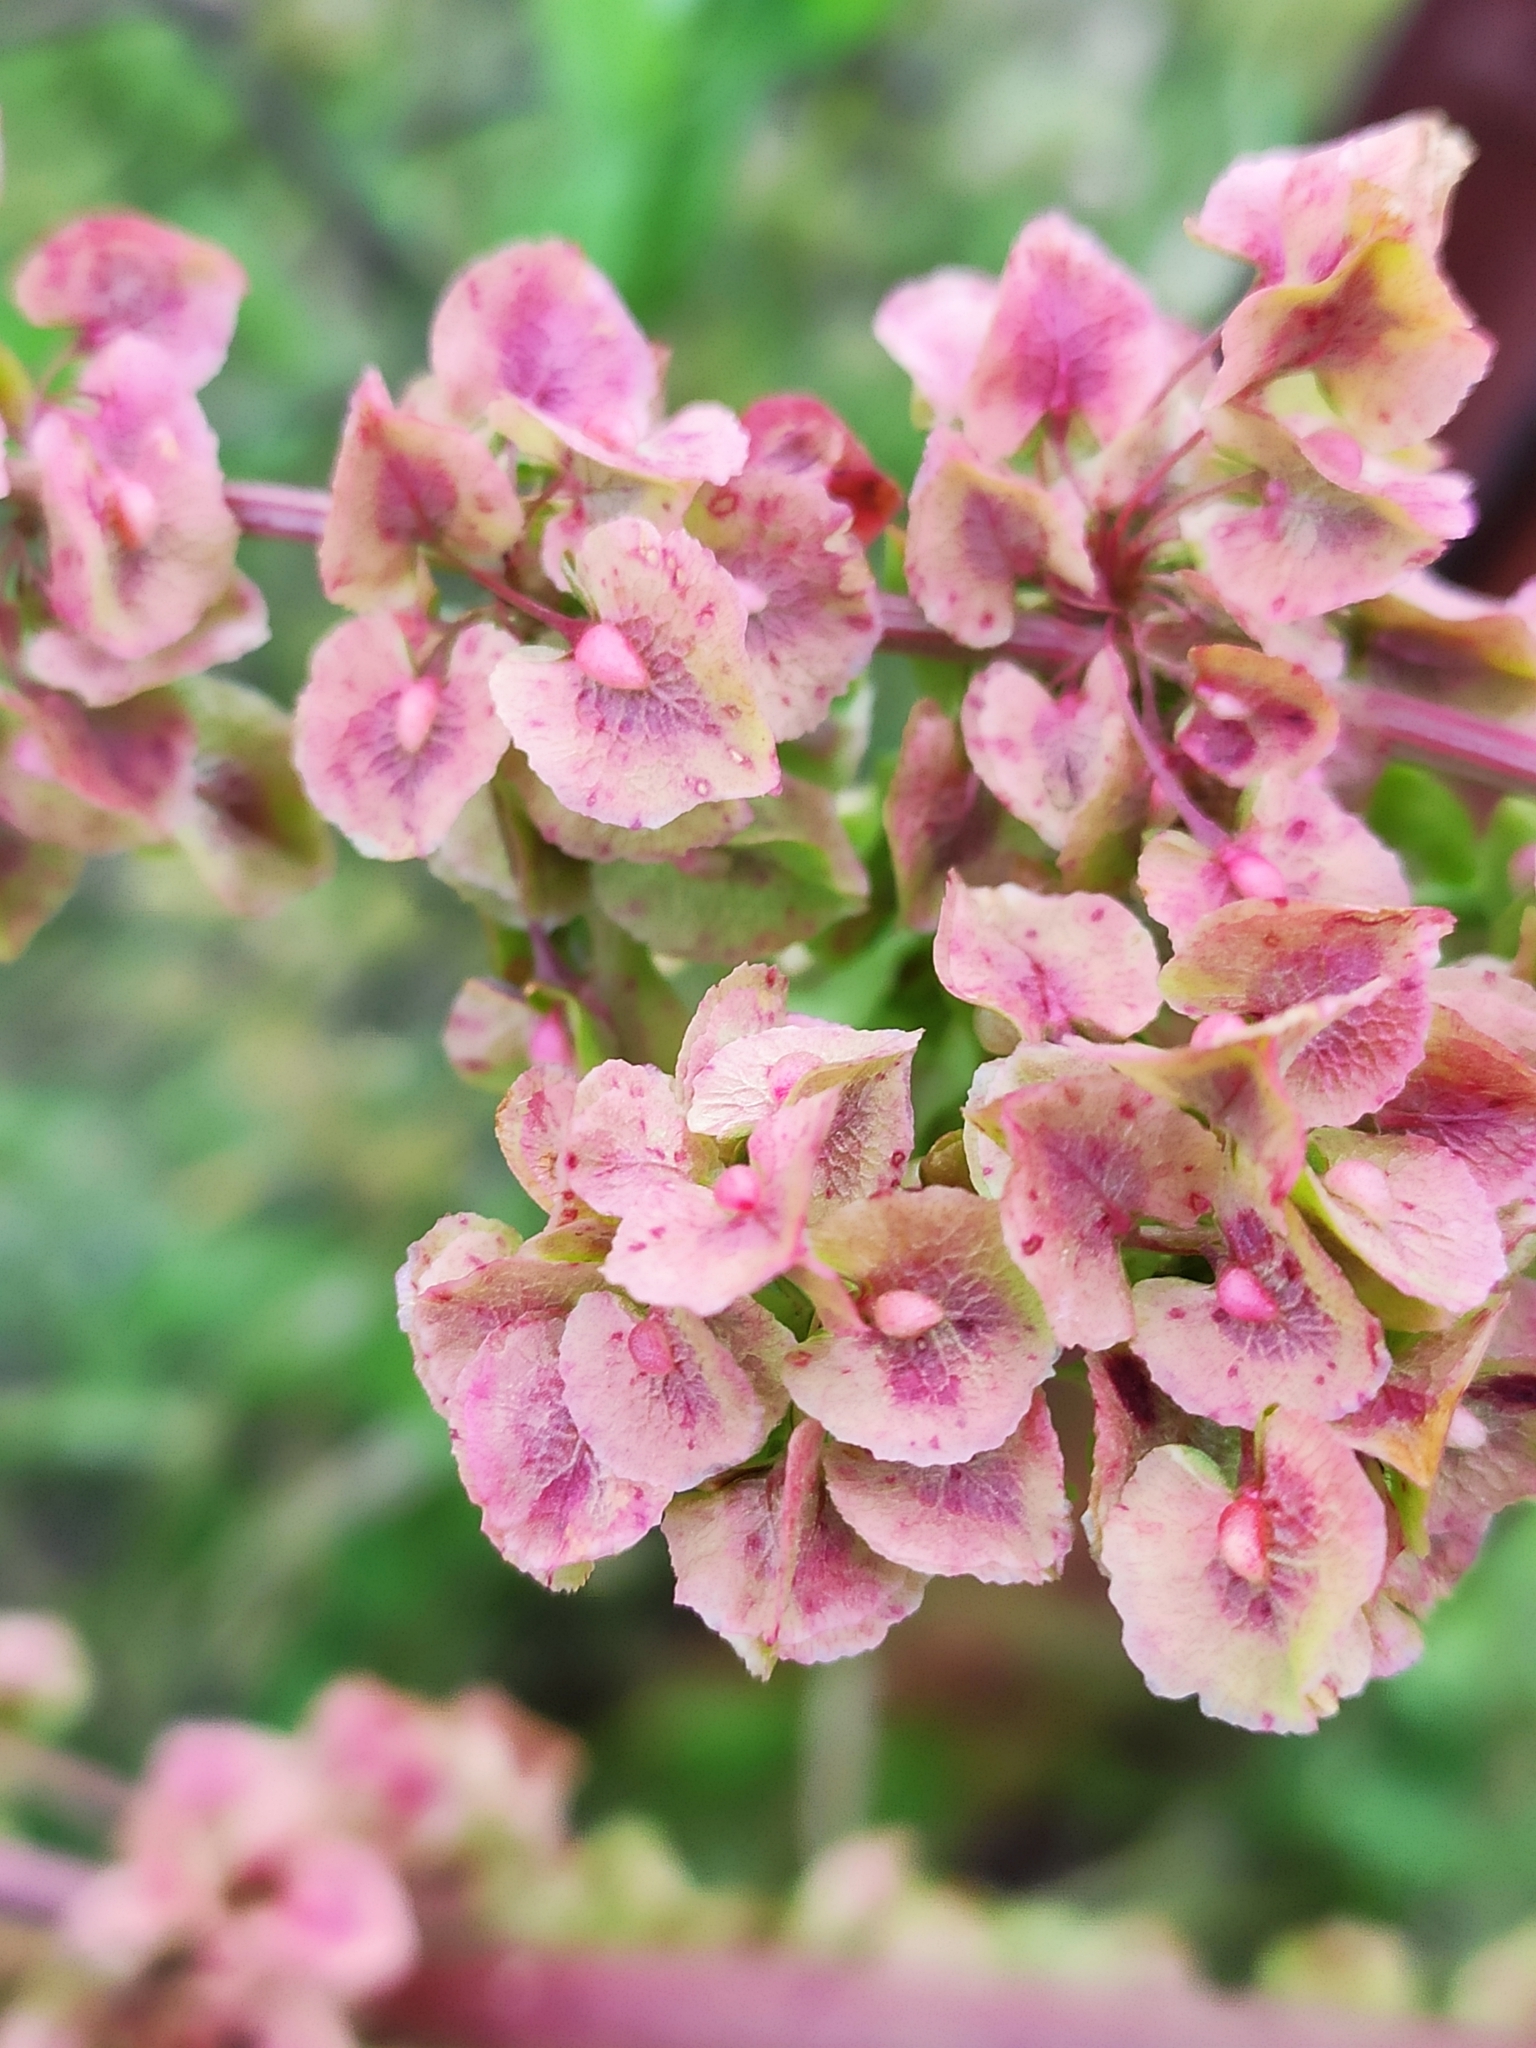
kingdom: Plantae
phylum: Tracheophyta
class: Magnoliopsida
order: Caryophyllales
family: Polygonaceae
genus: Rumex
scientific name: Rumex patientia
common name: Patience dock
